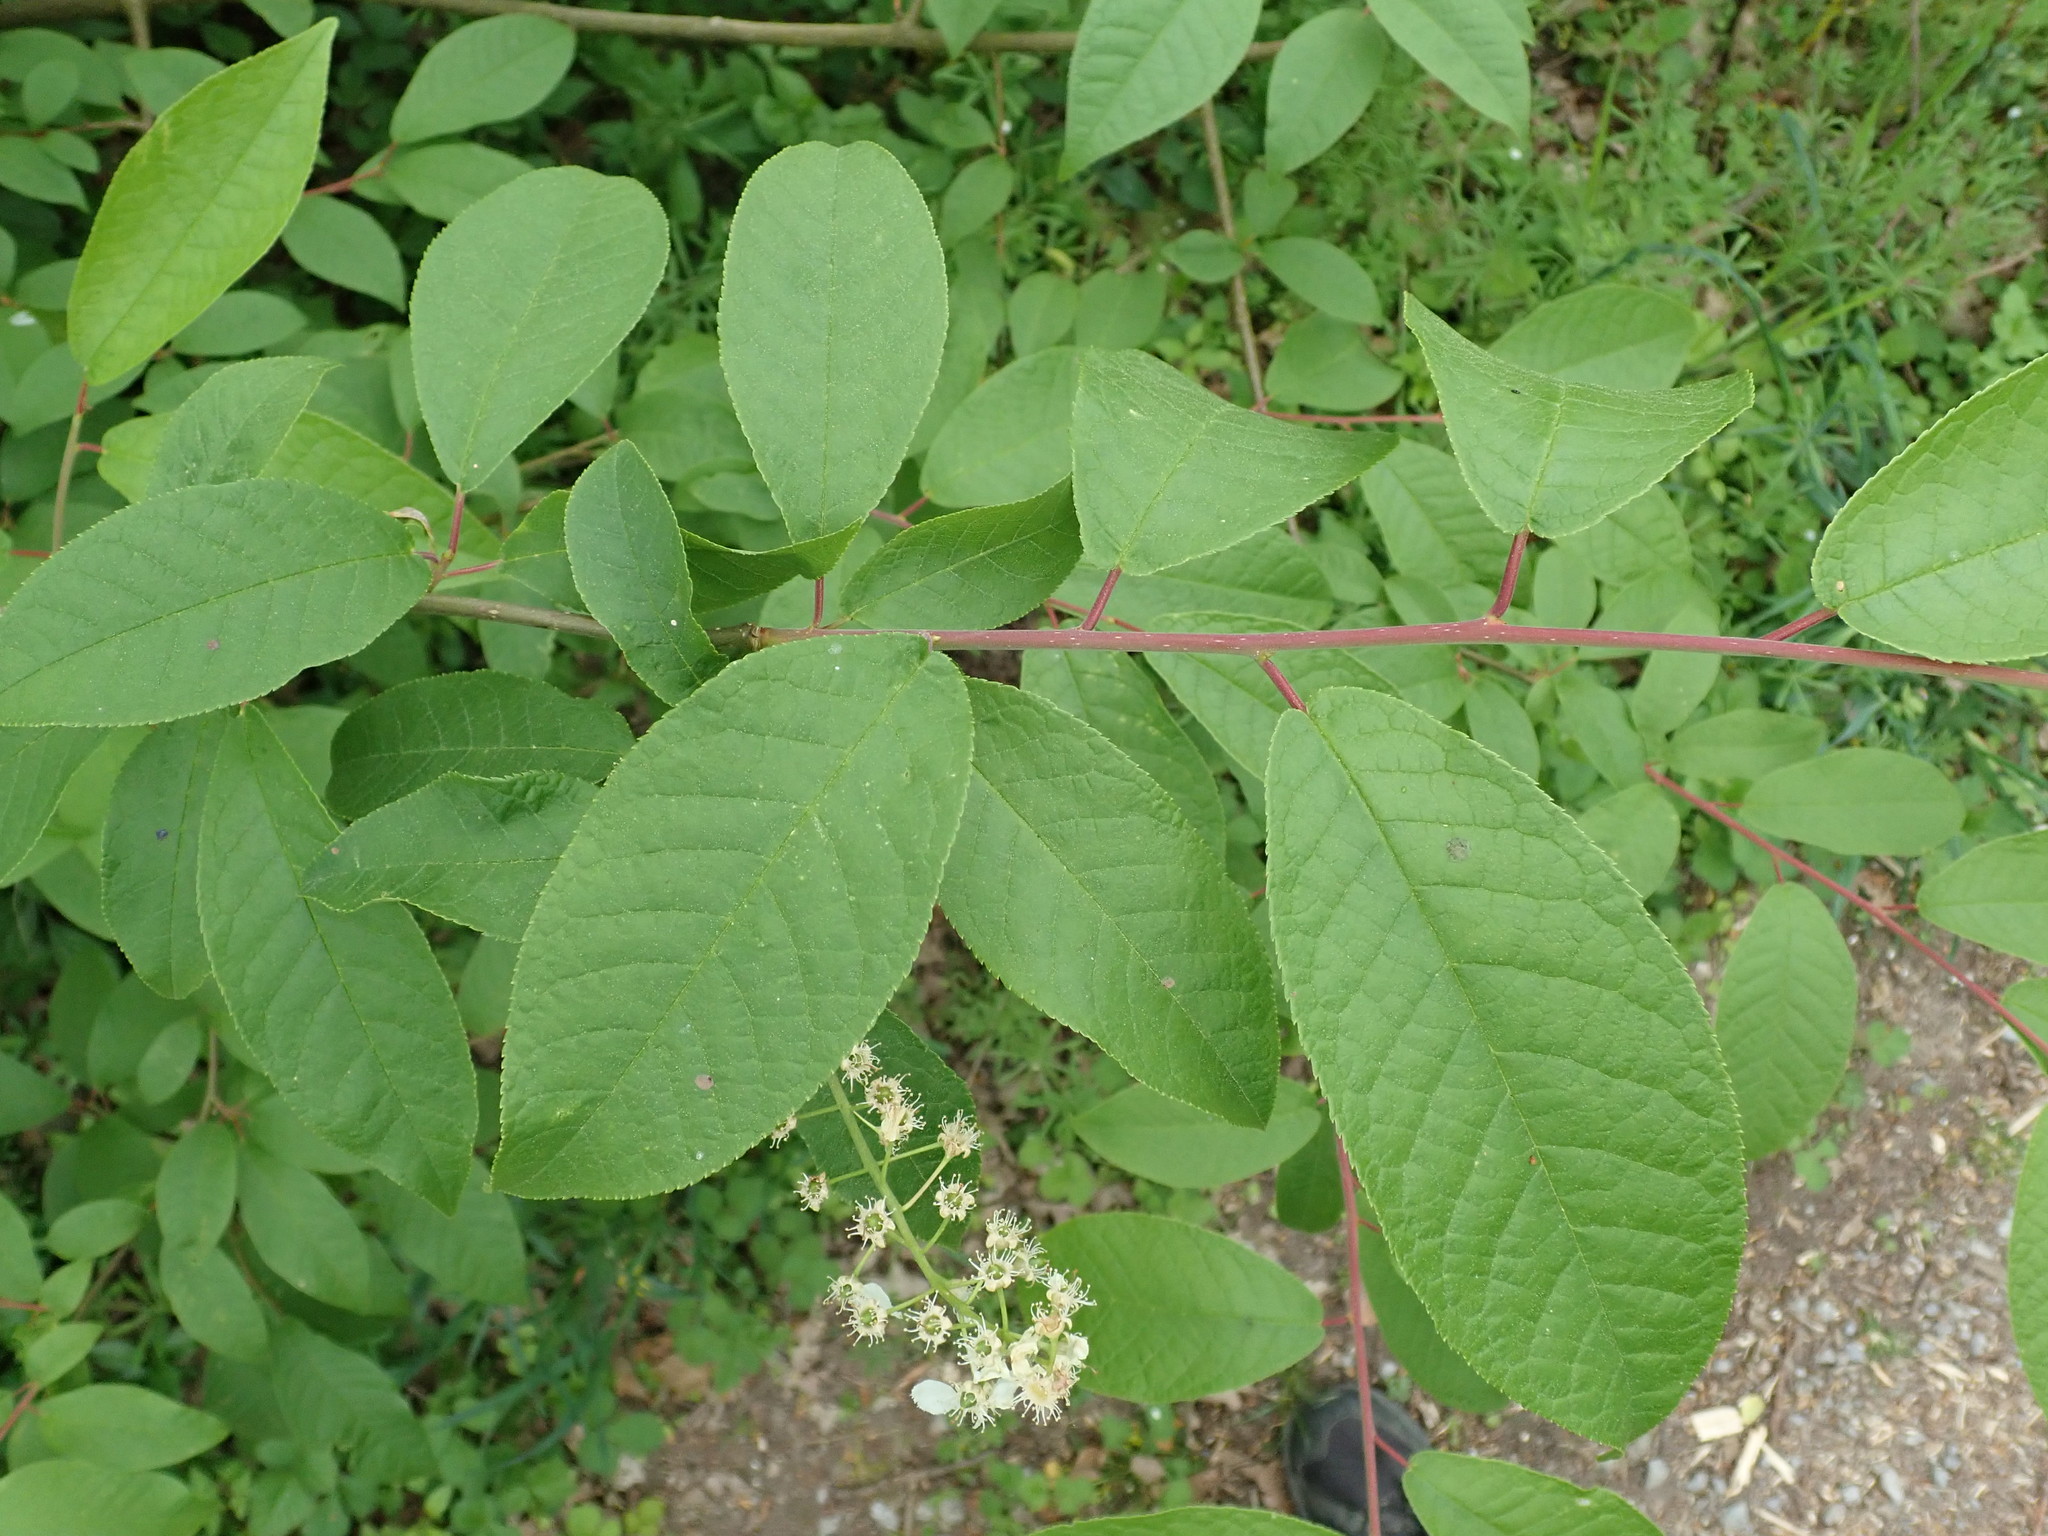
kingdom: Plantae
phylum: Tracheophyta
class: Magnoliopsida
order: Rosales
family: Rosaceae
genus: Prunus
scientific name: Prunus padus
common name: Bird cherry
